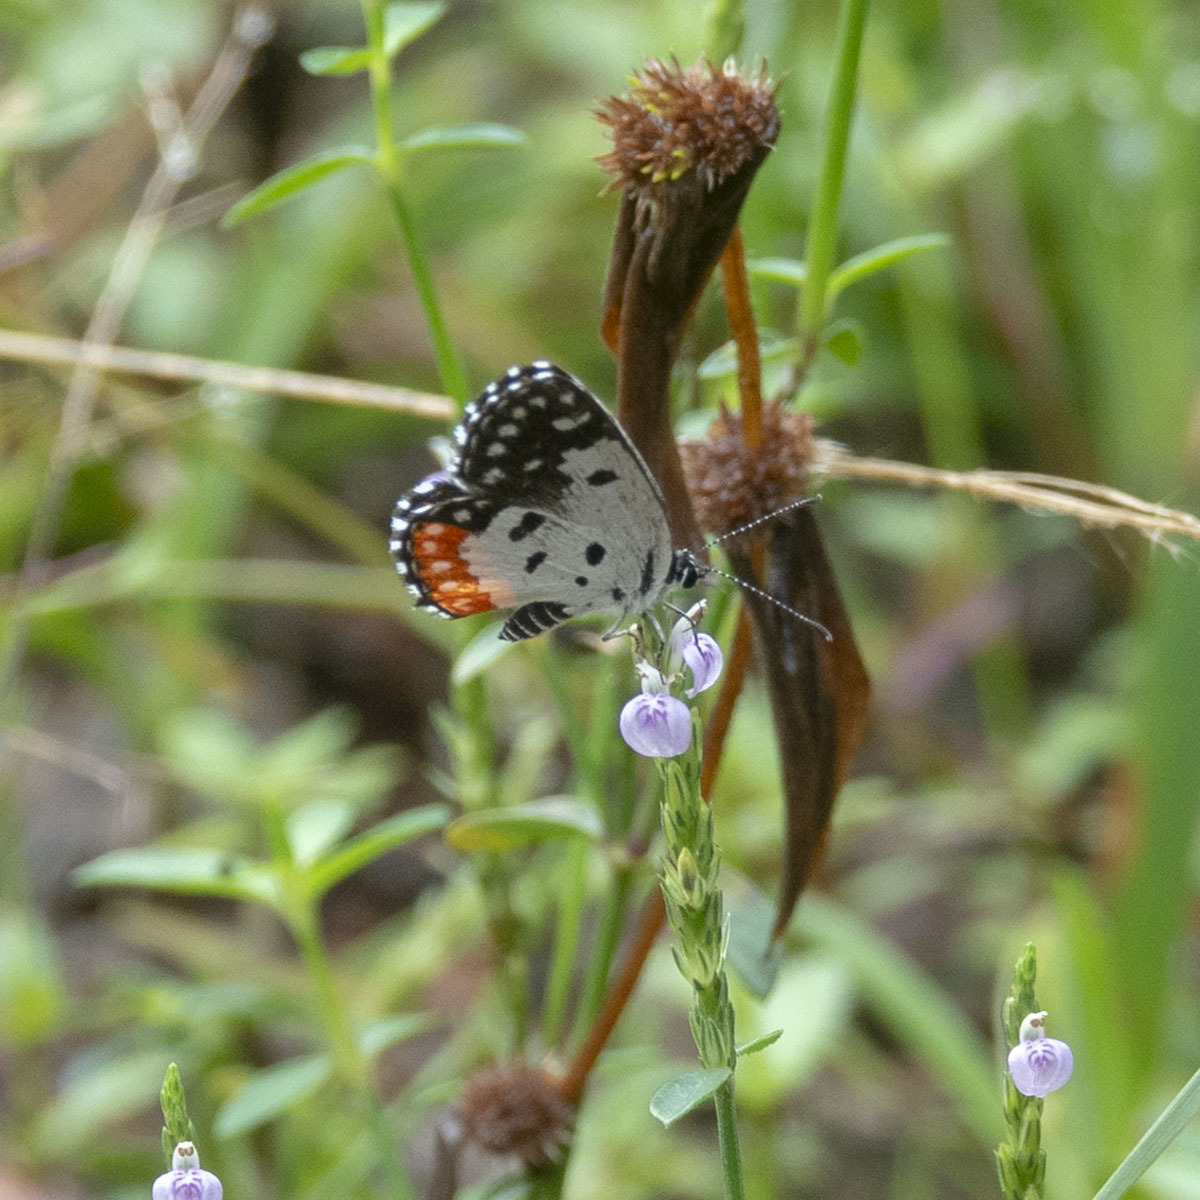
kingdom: Animalia
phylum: Arthropoda
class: Insecta
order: Lepidoptera
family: Lycaenidae
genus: Talicada
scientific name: Talicada nyseus
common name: Red pierrot
